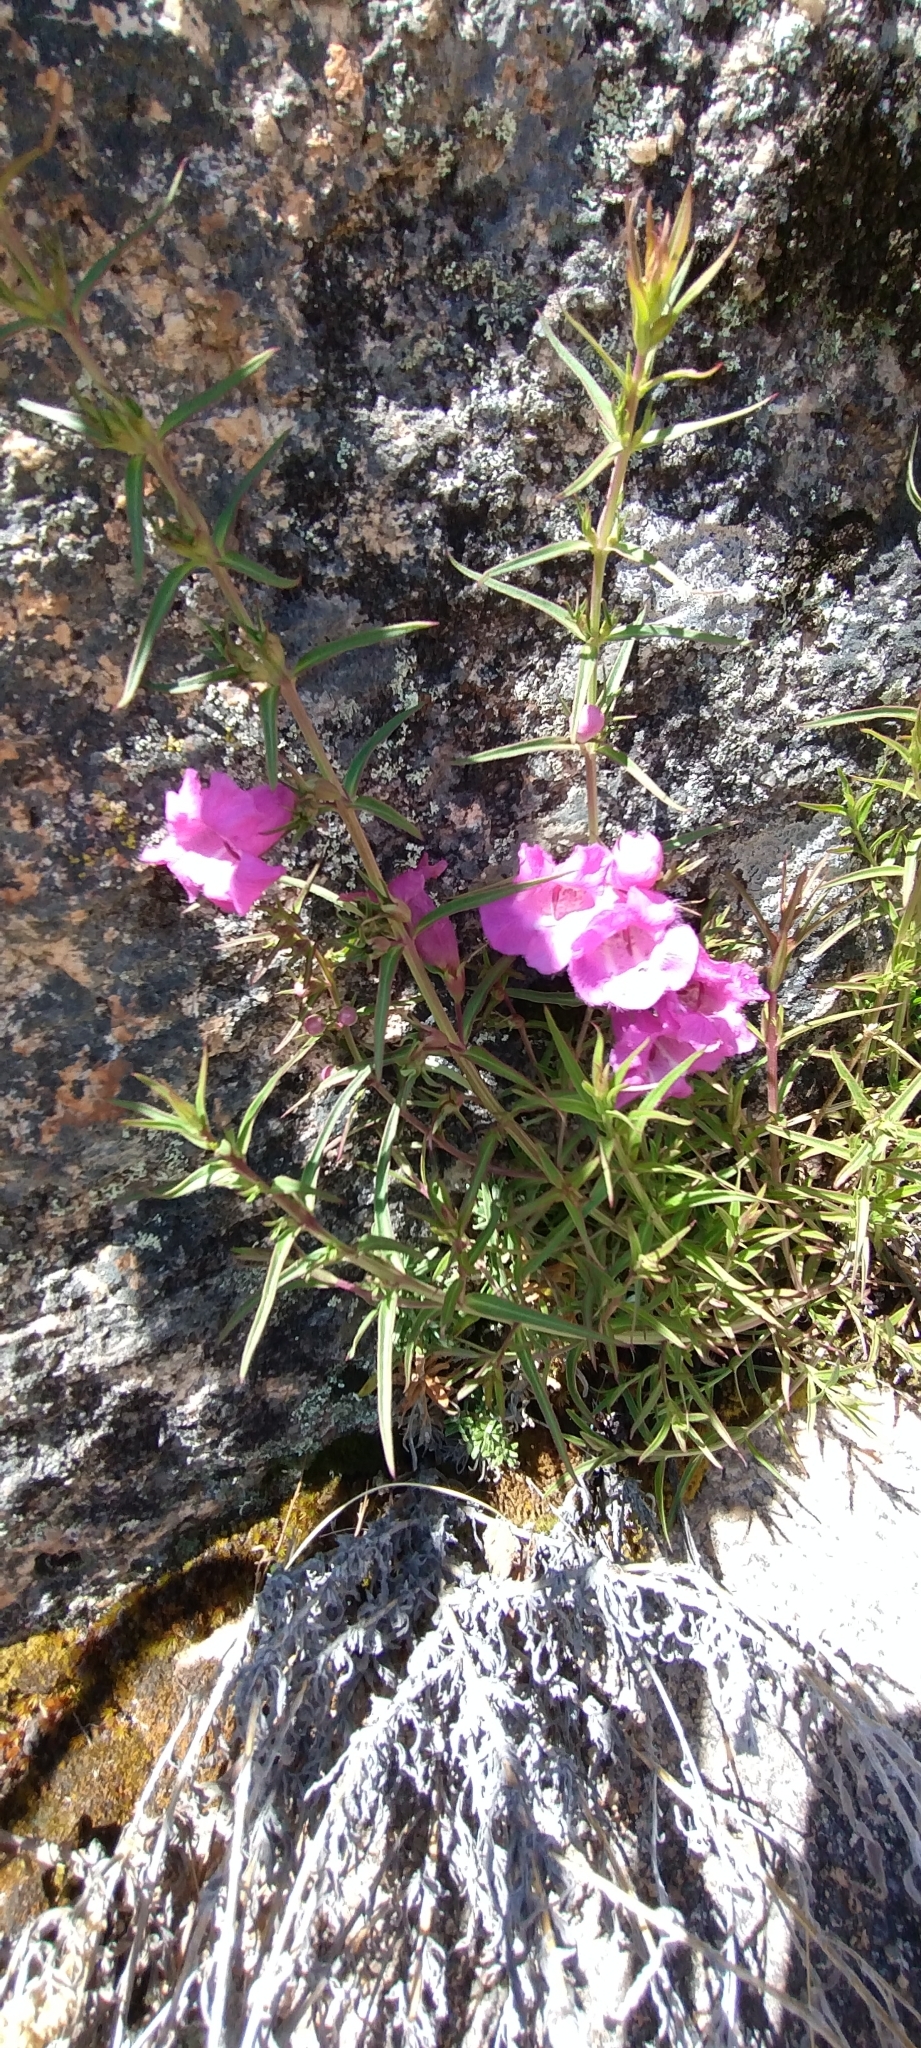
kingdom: Plantae
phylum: Tracheophyta
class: Magnoliopsida
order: Lamiales
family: Orobanchaceae
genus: Agalinis
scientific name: Agalinis fiebrigii
